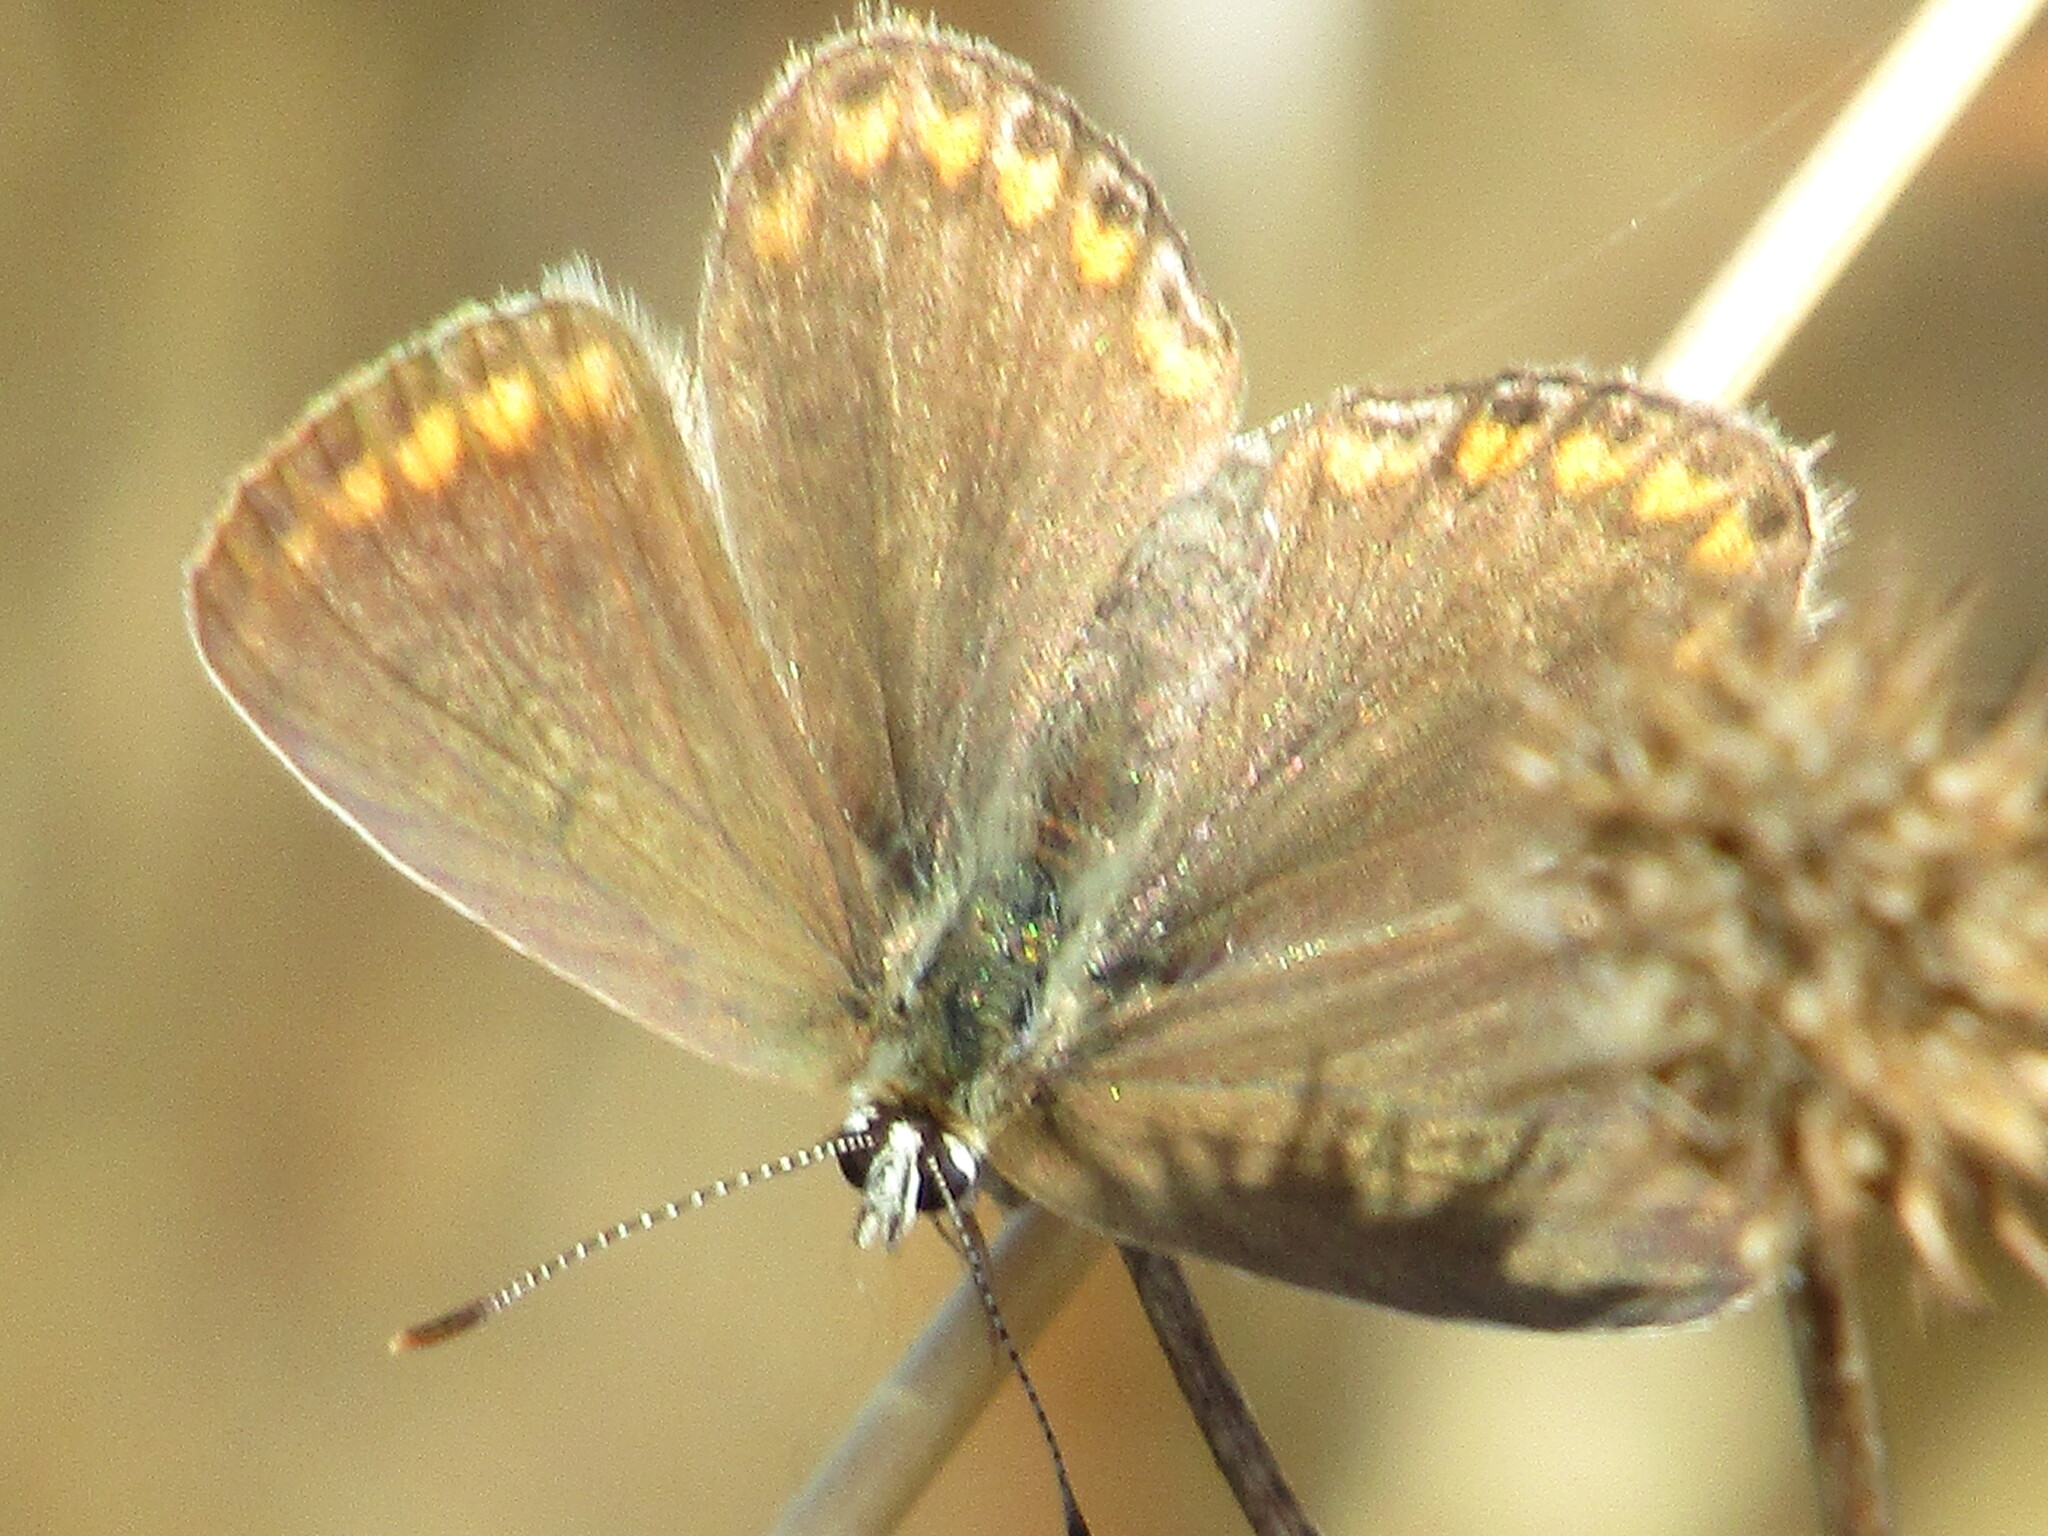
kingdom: Animalia
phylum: Arthropoda
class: Insecta
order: Lepidoptera
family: Lycaenidae
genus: Polyommatus
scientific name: Polyommatus icarus
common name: Common blue
